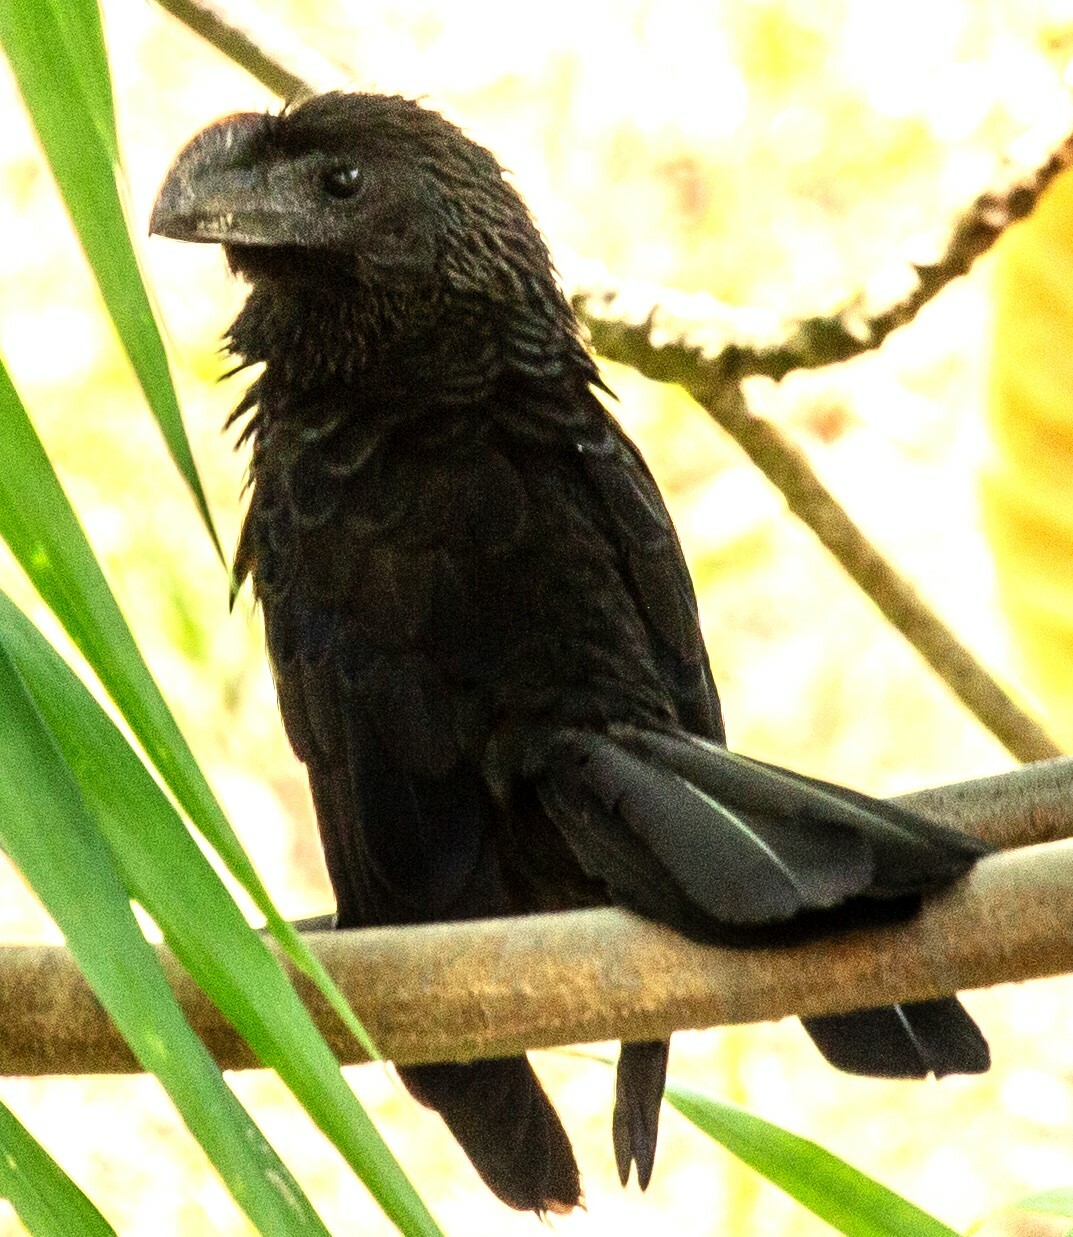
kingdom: Animalia
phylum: Chordata
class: Aves
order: Cuculiformes
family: Cuculidae
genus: Crotophaga
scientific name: Crotophaga ani
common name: Smooth-billed ani
